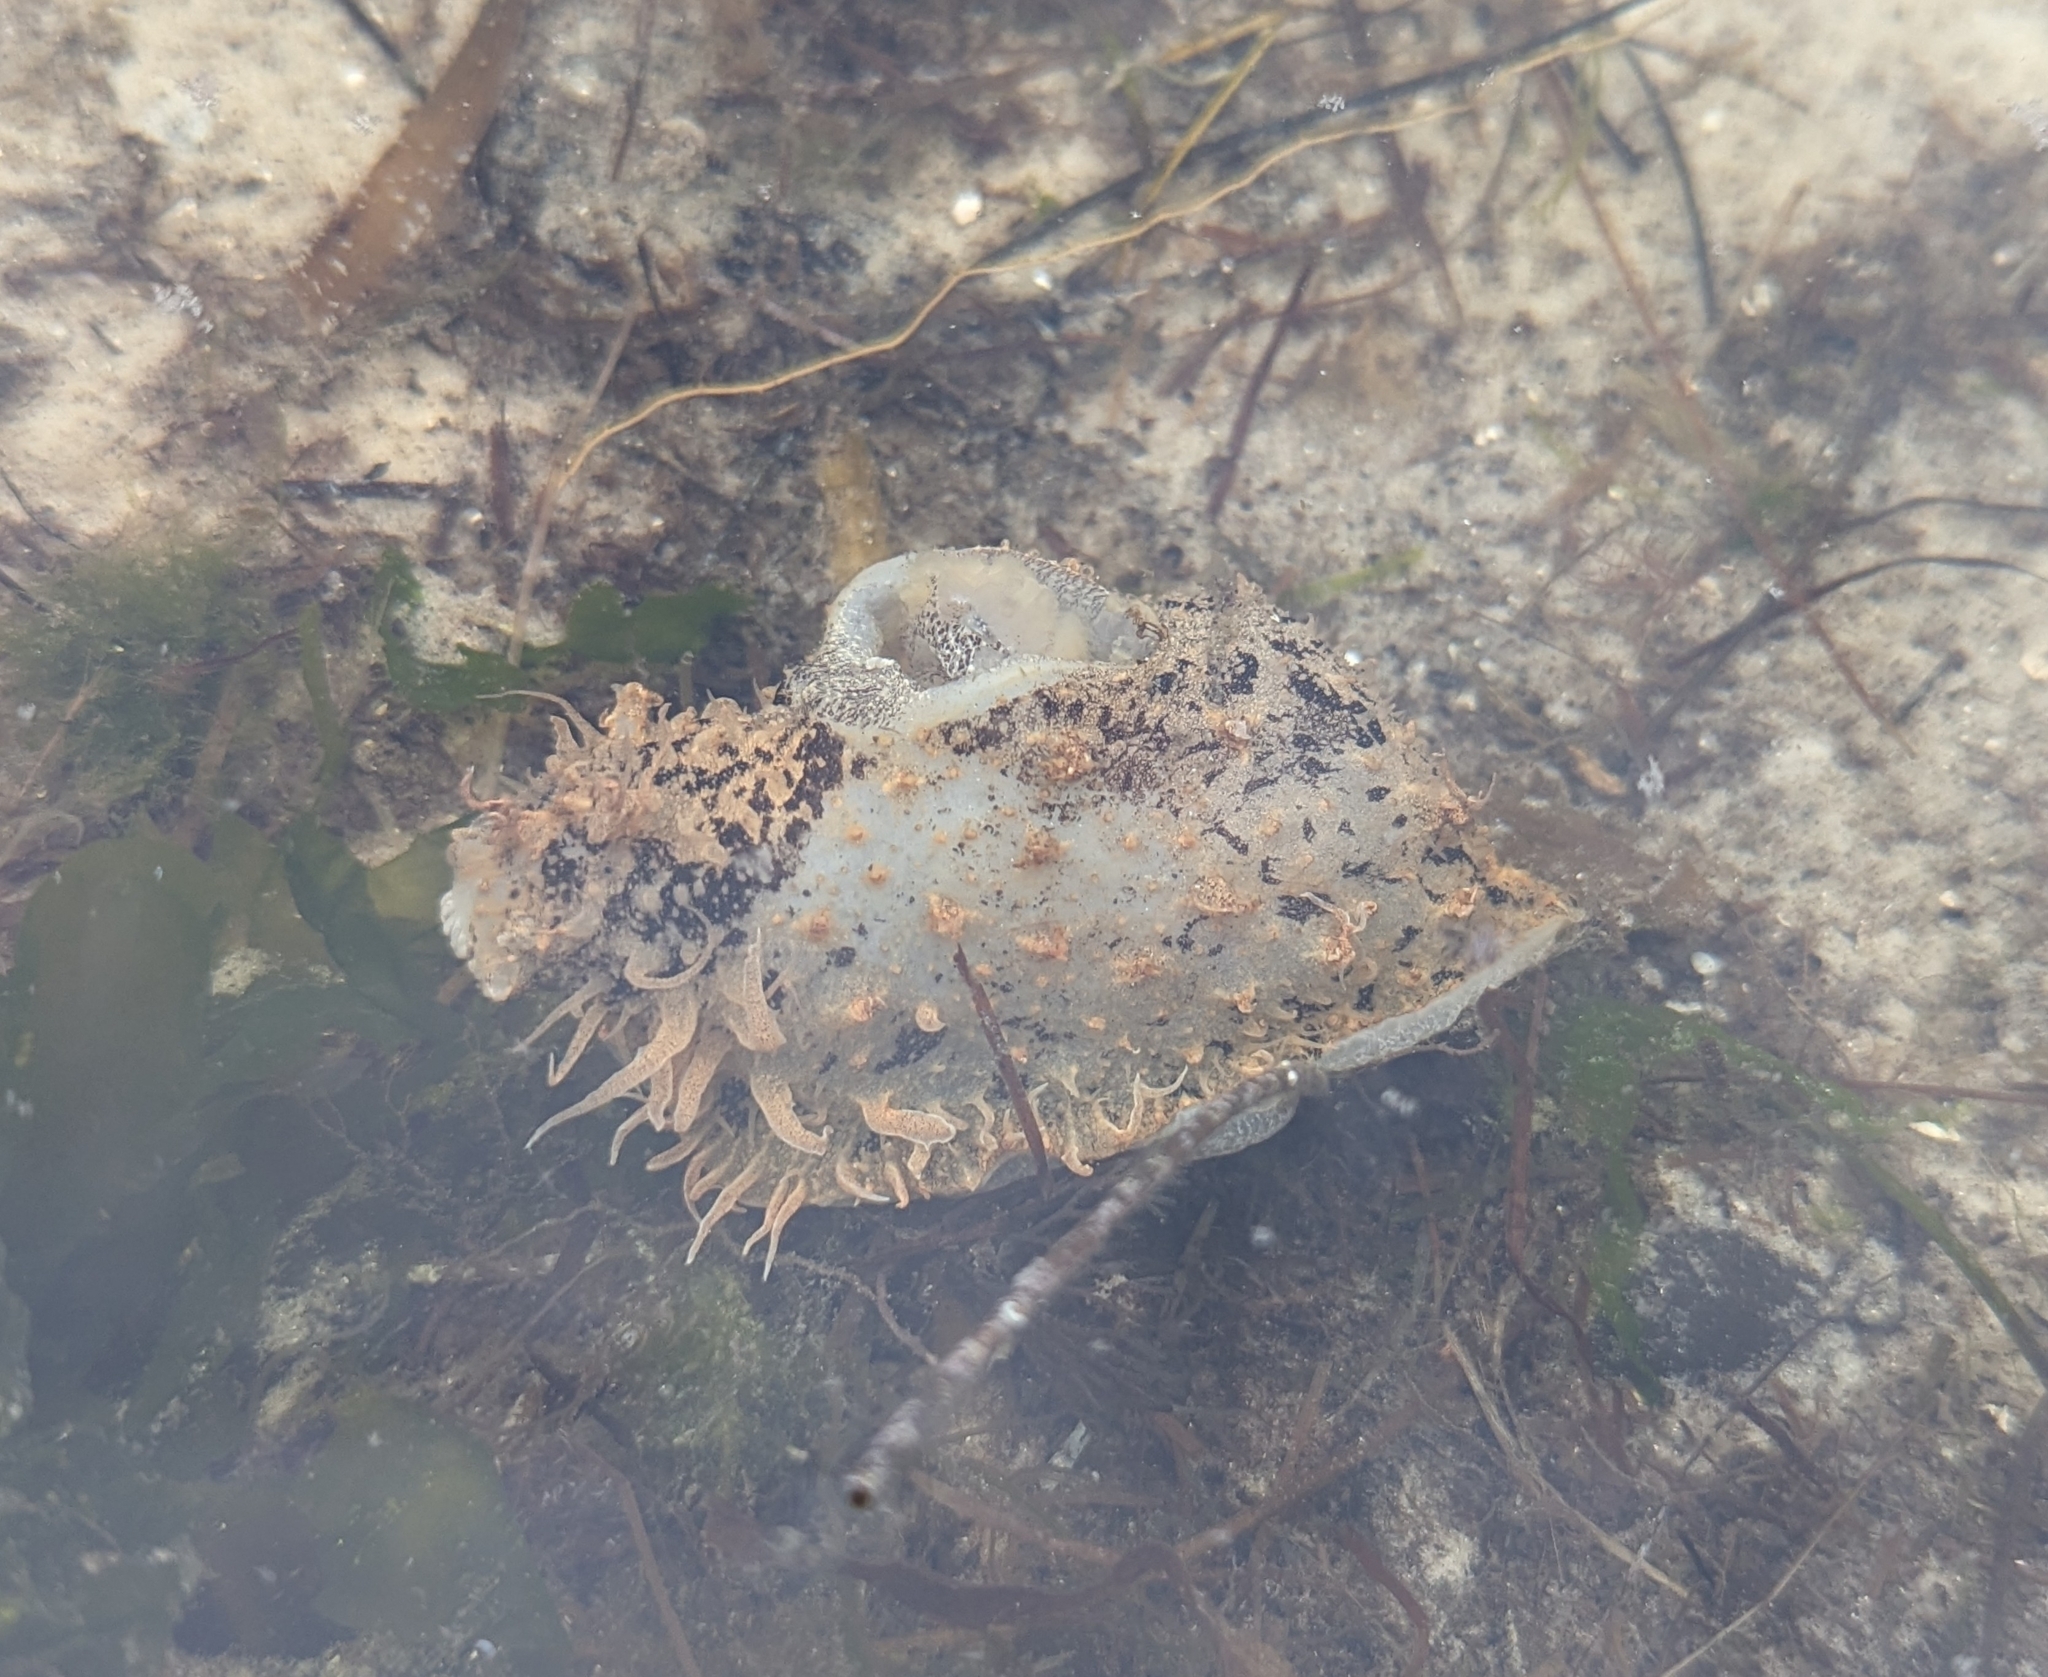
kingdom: Animalia
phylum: Mollusca
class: Gastropoda
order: Aplysiida
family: Aplysiidae
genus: Bursatella
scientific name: Bursatella leachii
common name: Shaggy sea hare
